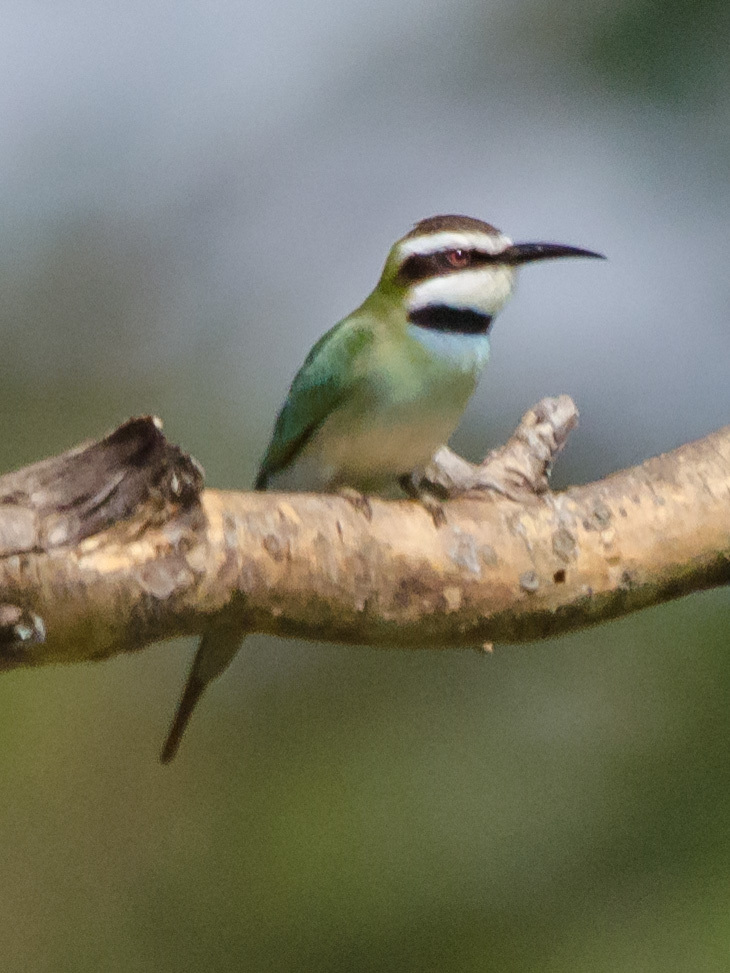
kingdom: Animalia
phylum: Chordata
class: Aves
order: Coraciiformes
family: Meropidae
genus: Merops
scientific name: Merops albicollis
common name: White-throated bee-eater
